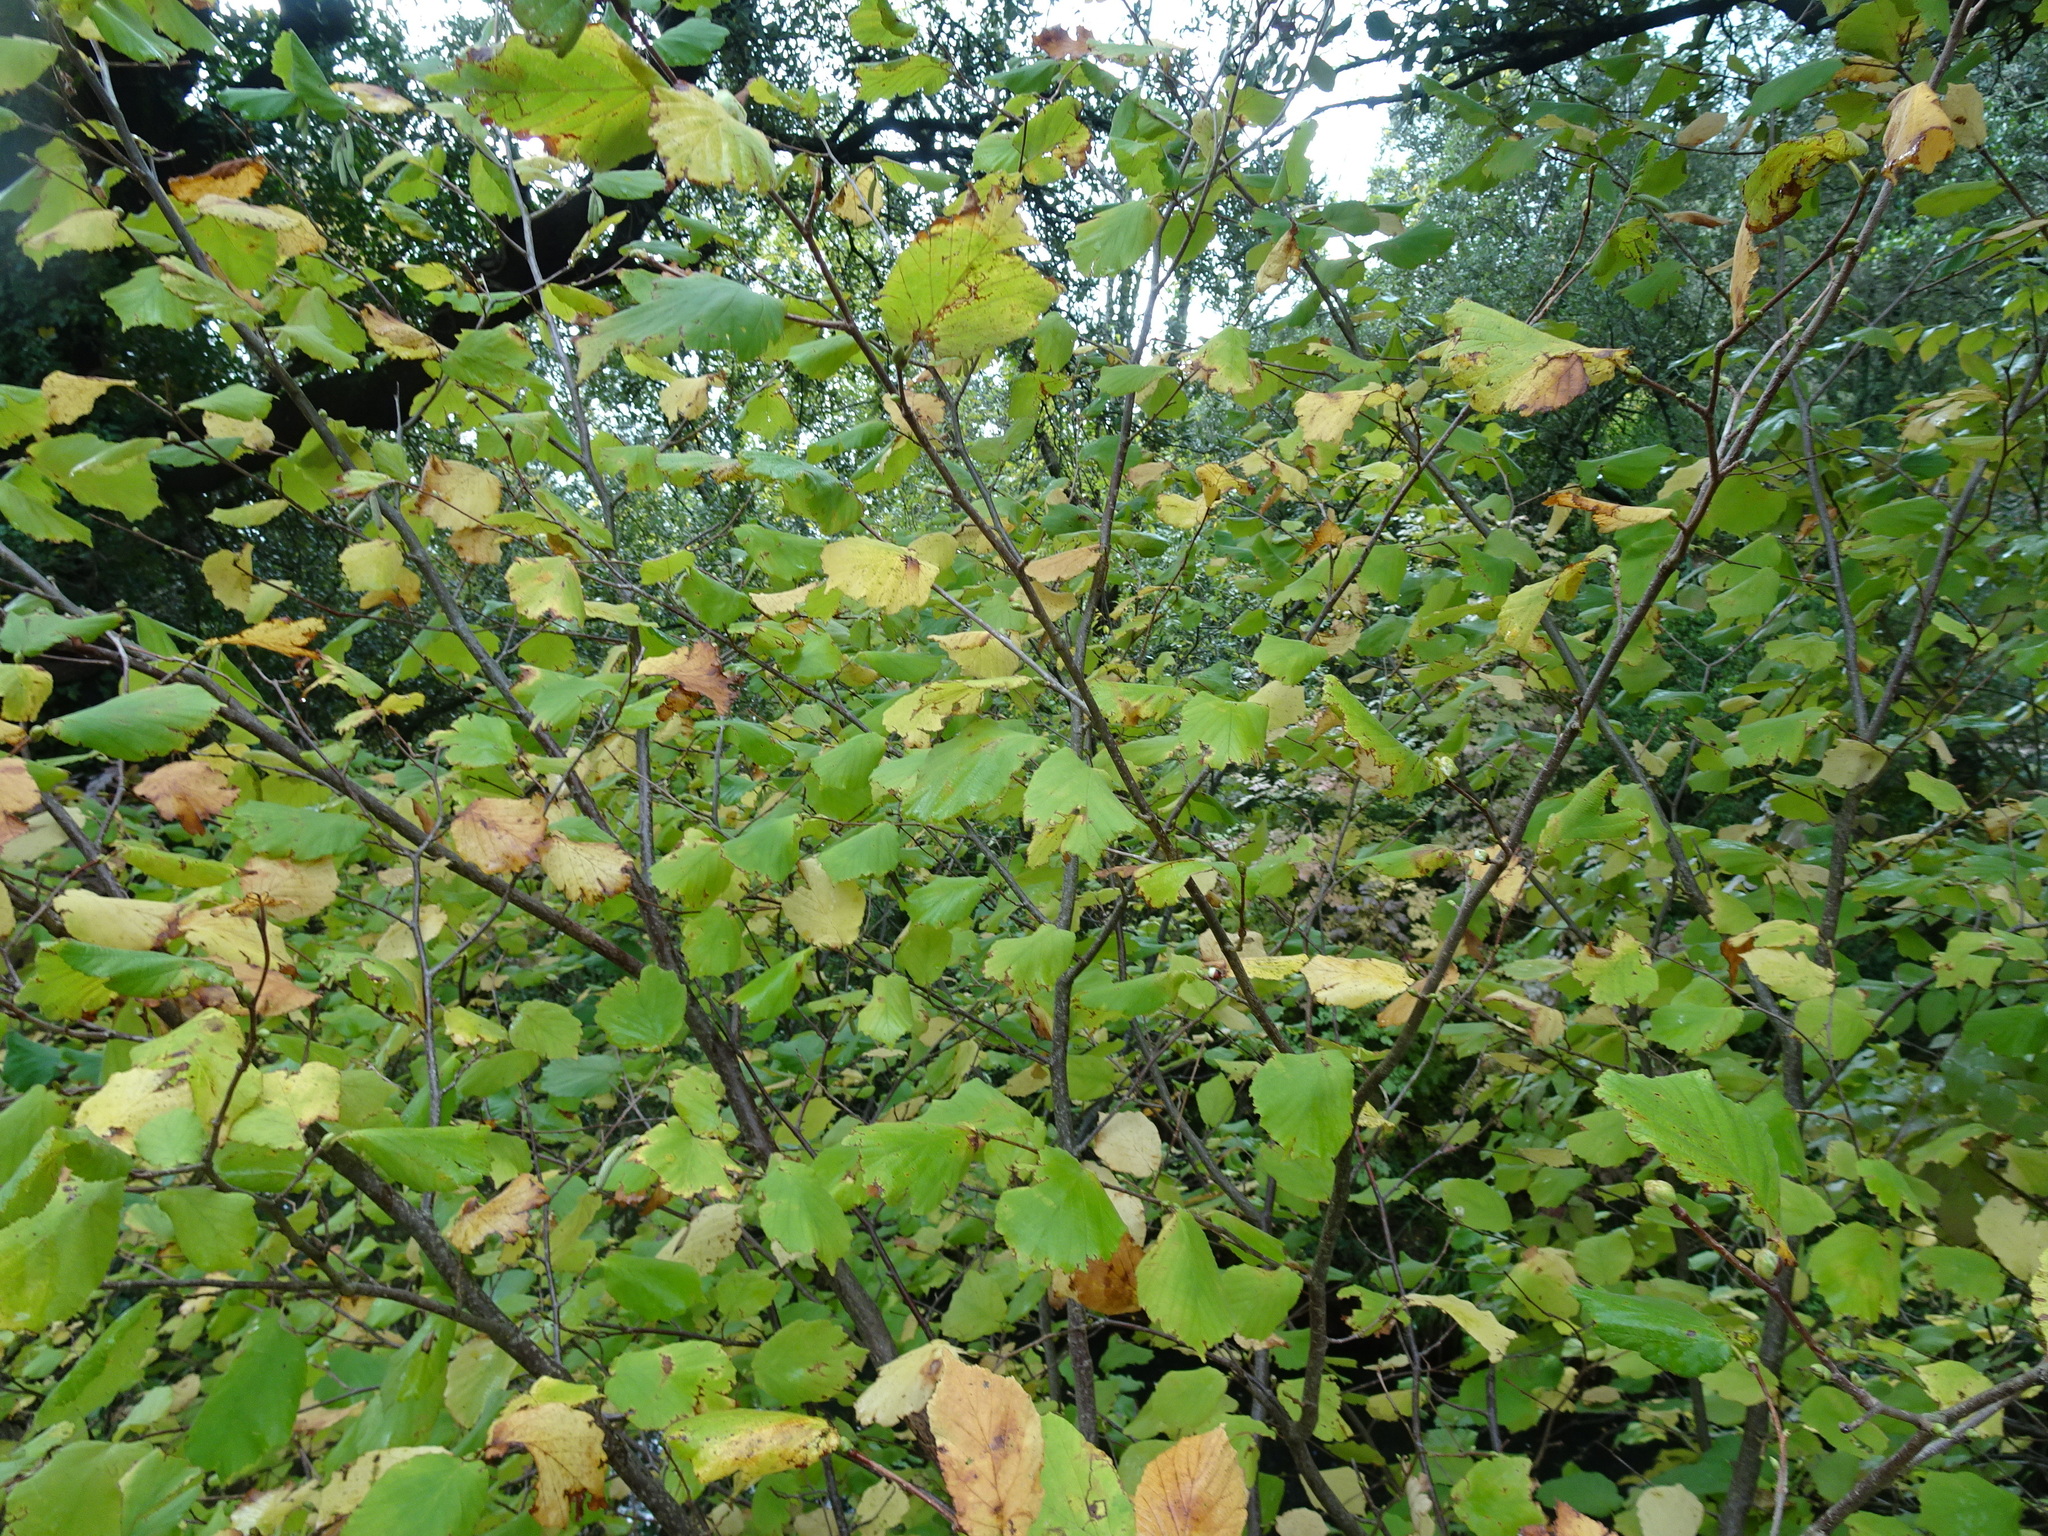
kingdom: Plantae
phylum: Tracheophyta
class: Magnoliopsida
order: Fagales
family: Betulaceae
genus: Corylus
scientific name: Corylus avellana
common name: European hazel
